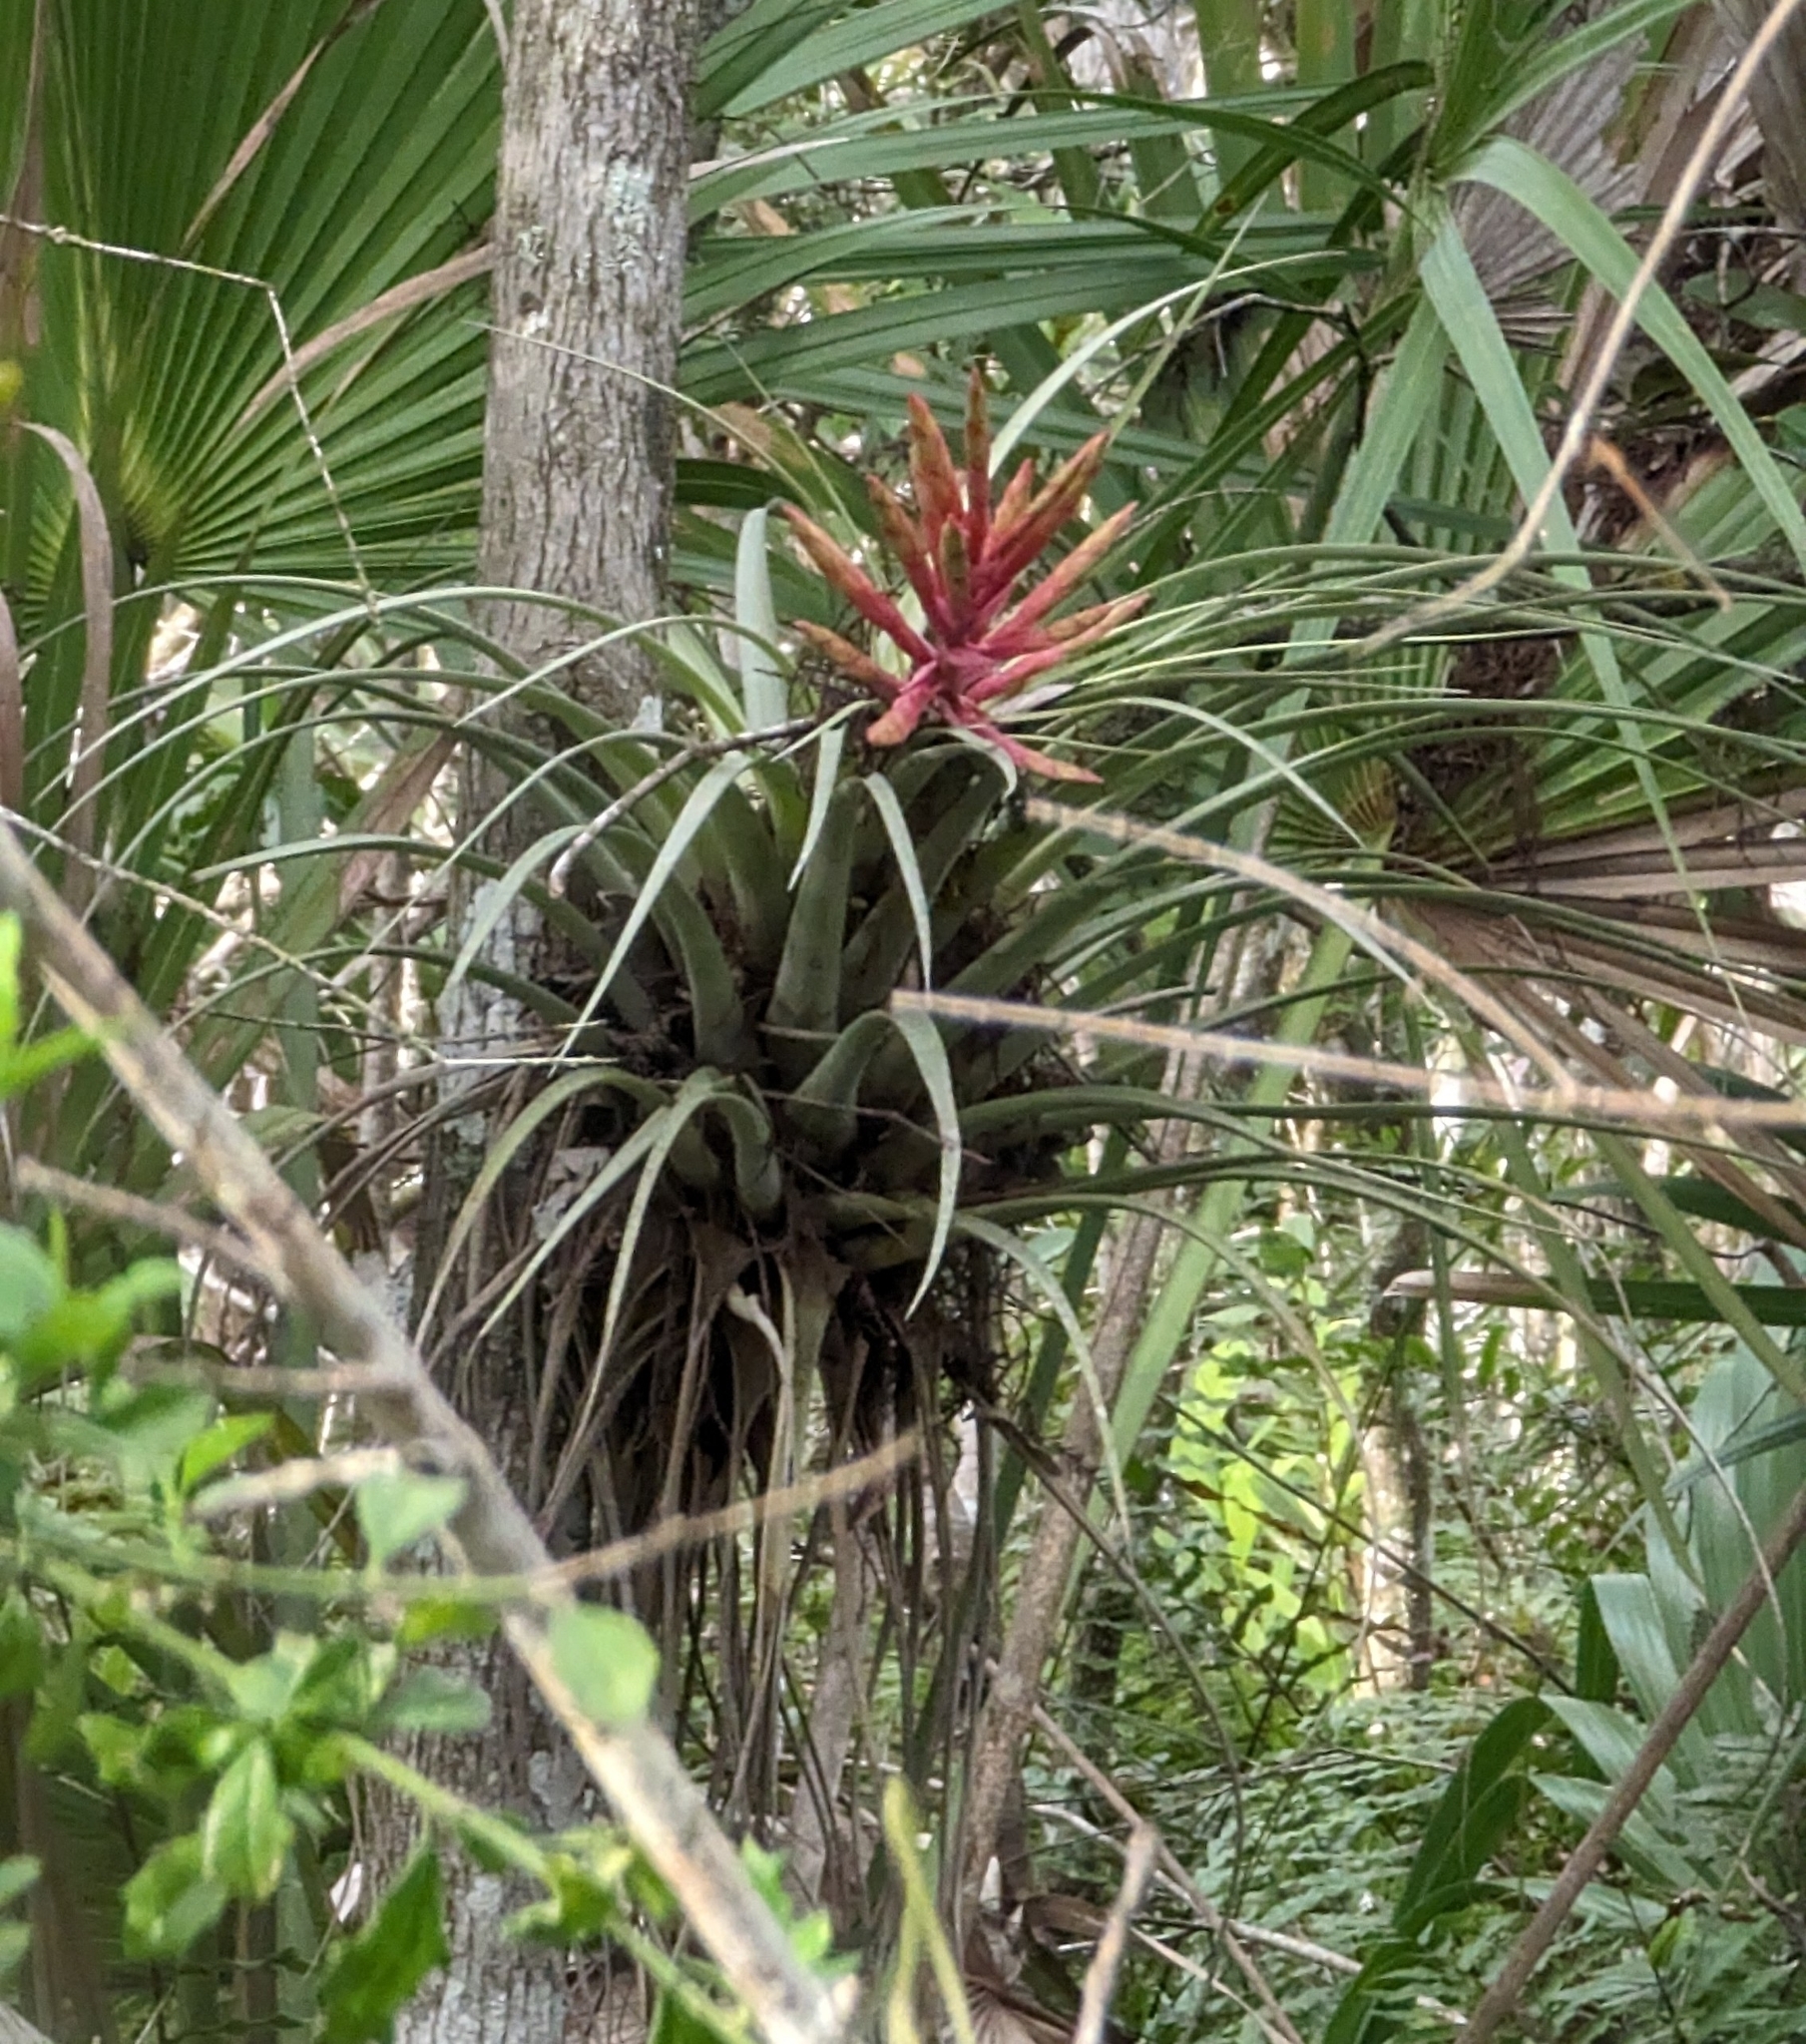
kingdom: Plantae
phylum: Tracheophyta
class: Liliopsida
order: Poales
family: Bromeliaceae
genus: Tillandsia
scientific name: Tillandsia fasciculata
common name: Giant airplant
